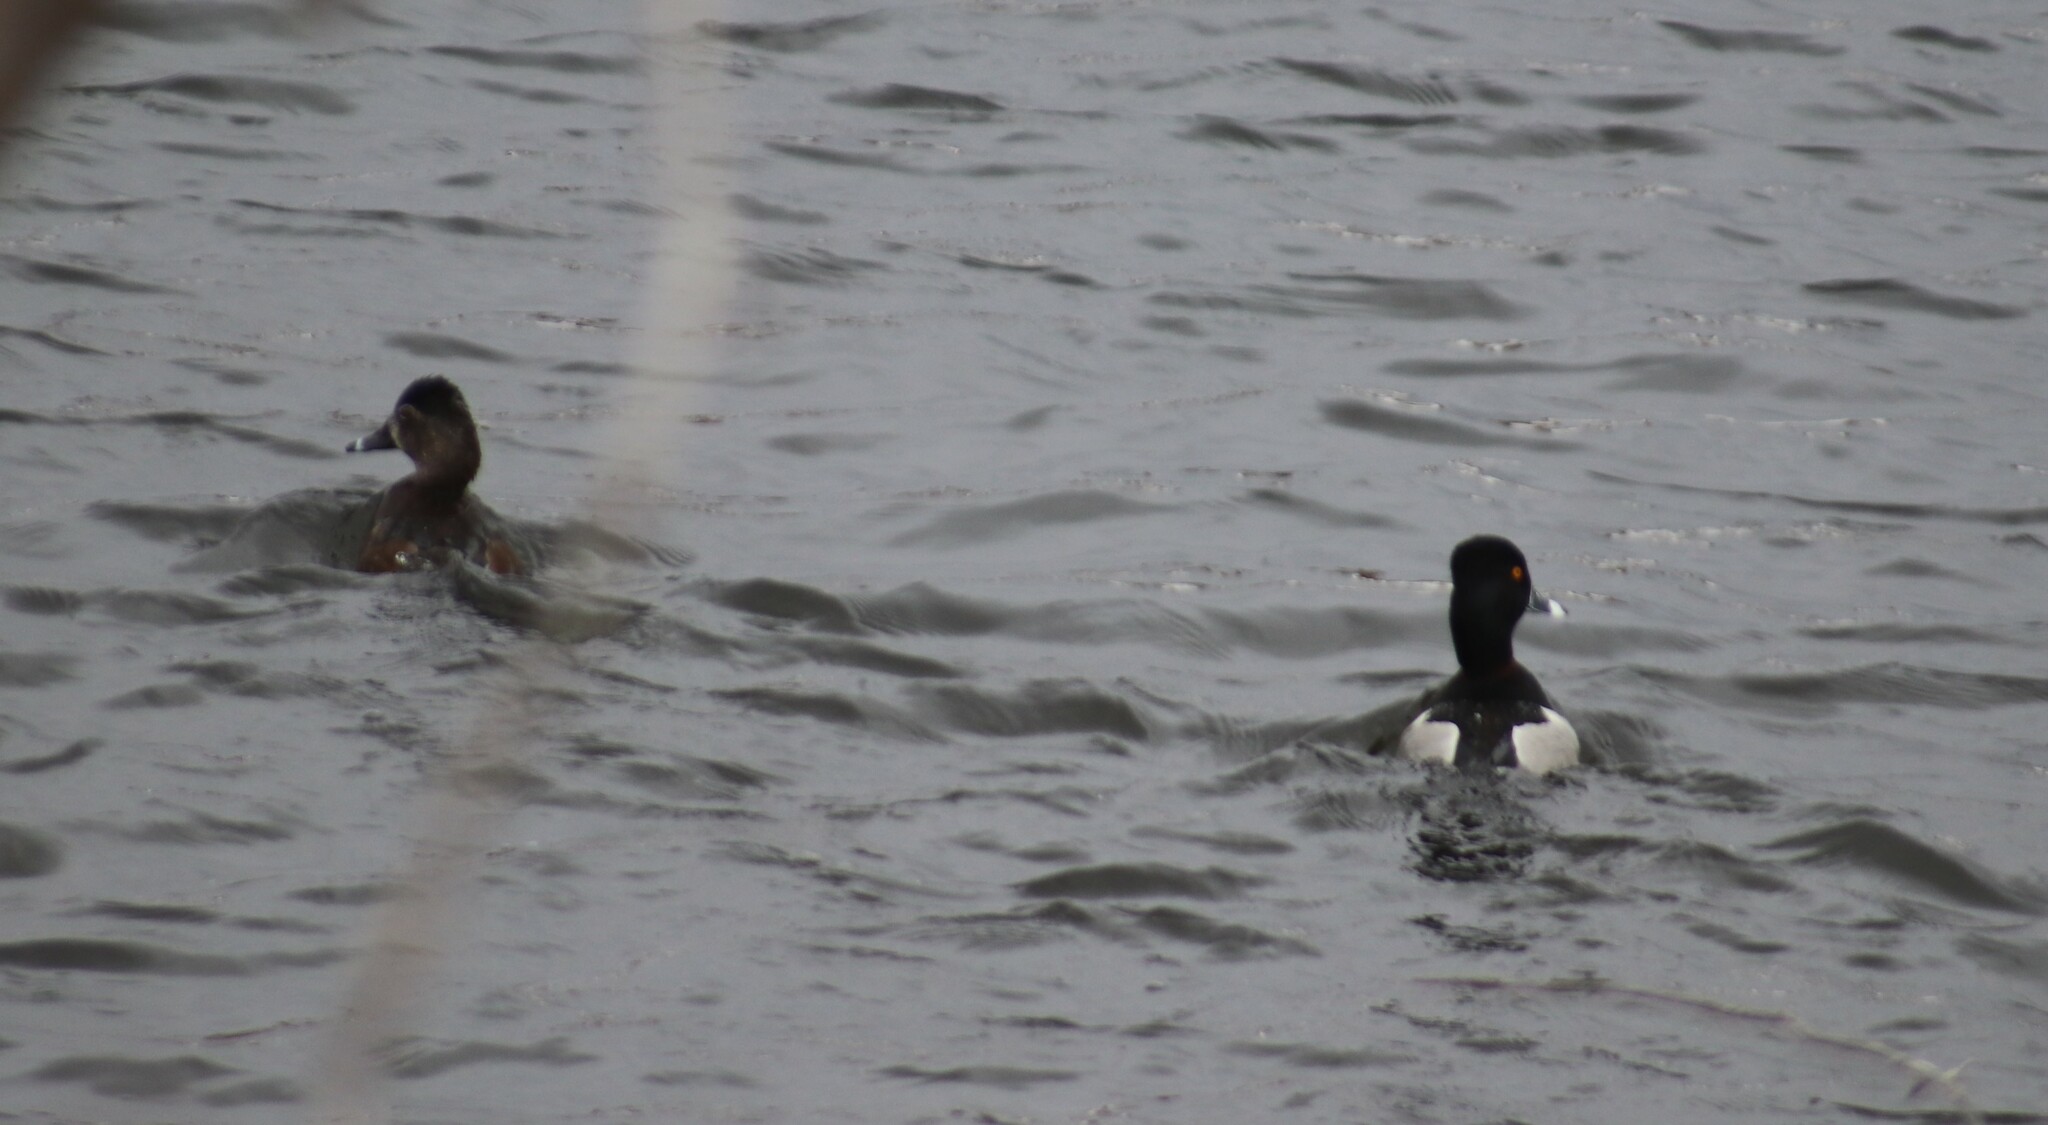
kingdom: Animalia
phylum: Chordata
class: Aves
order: Anseriformes
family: Anatidae
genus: Aythya
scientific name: Aythya collaris
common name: Ring-necked duck
